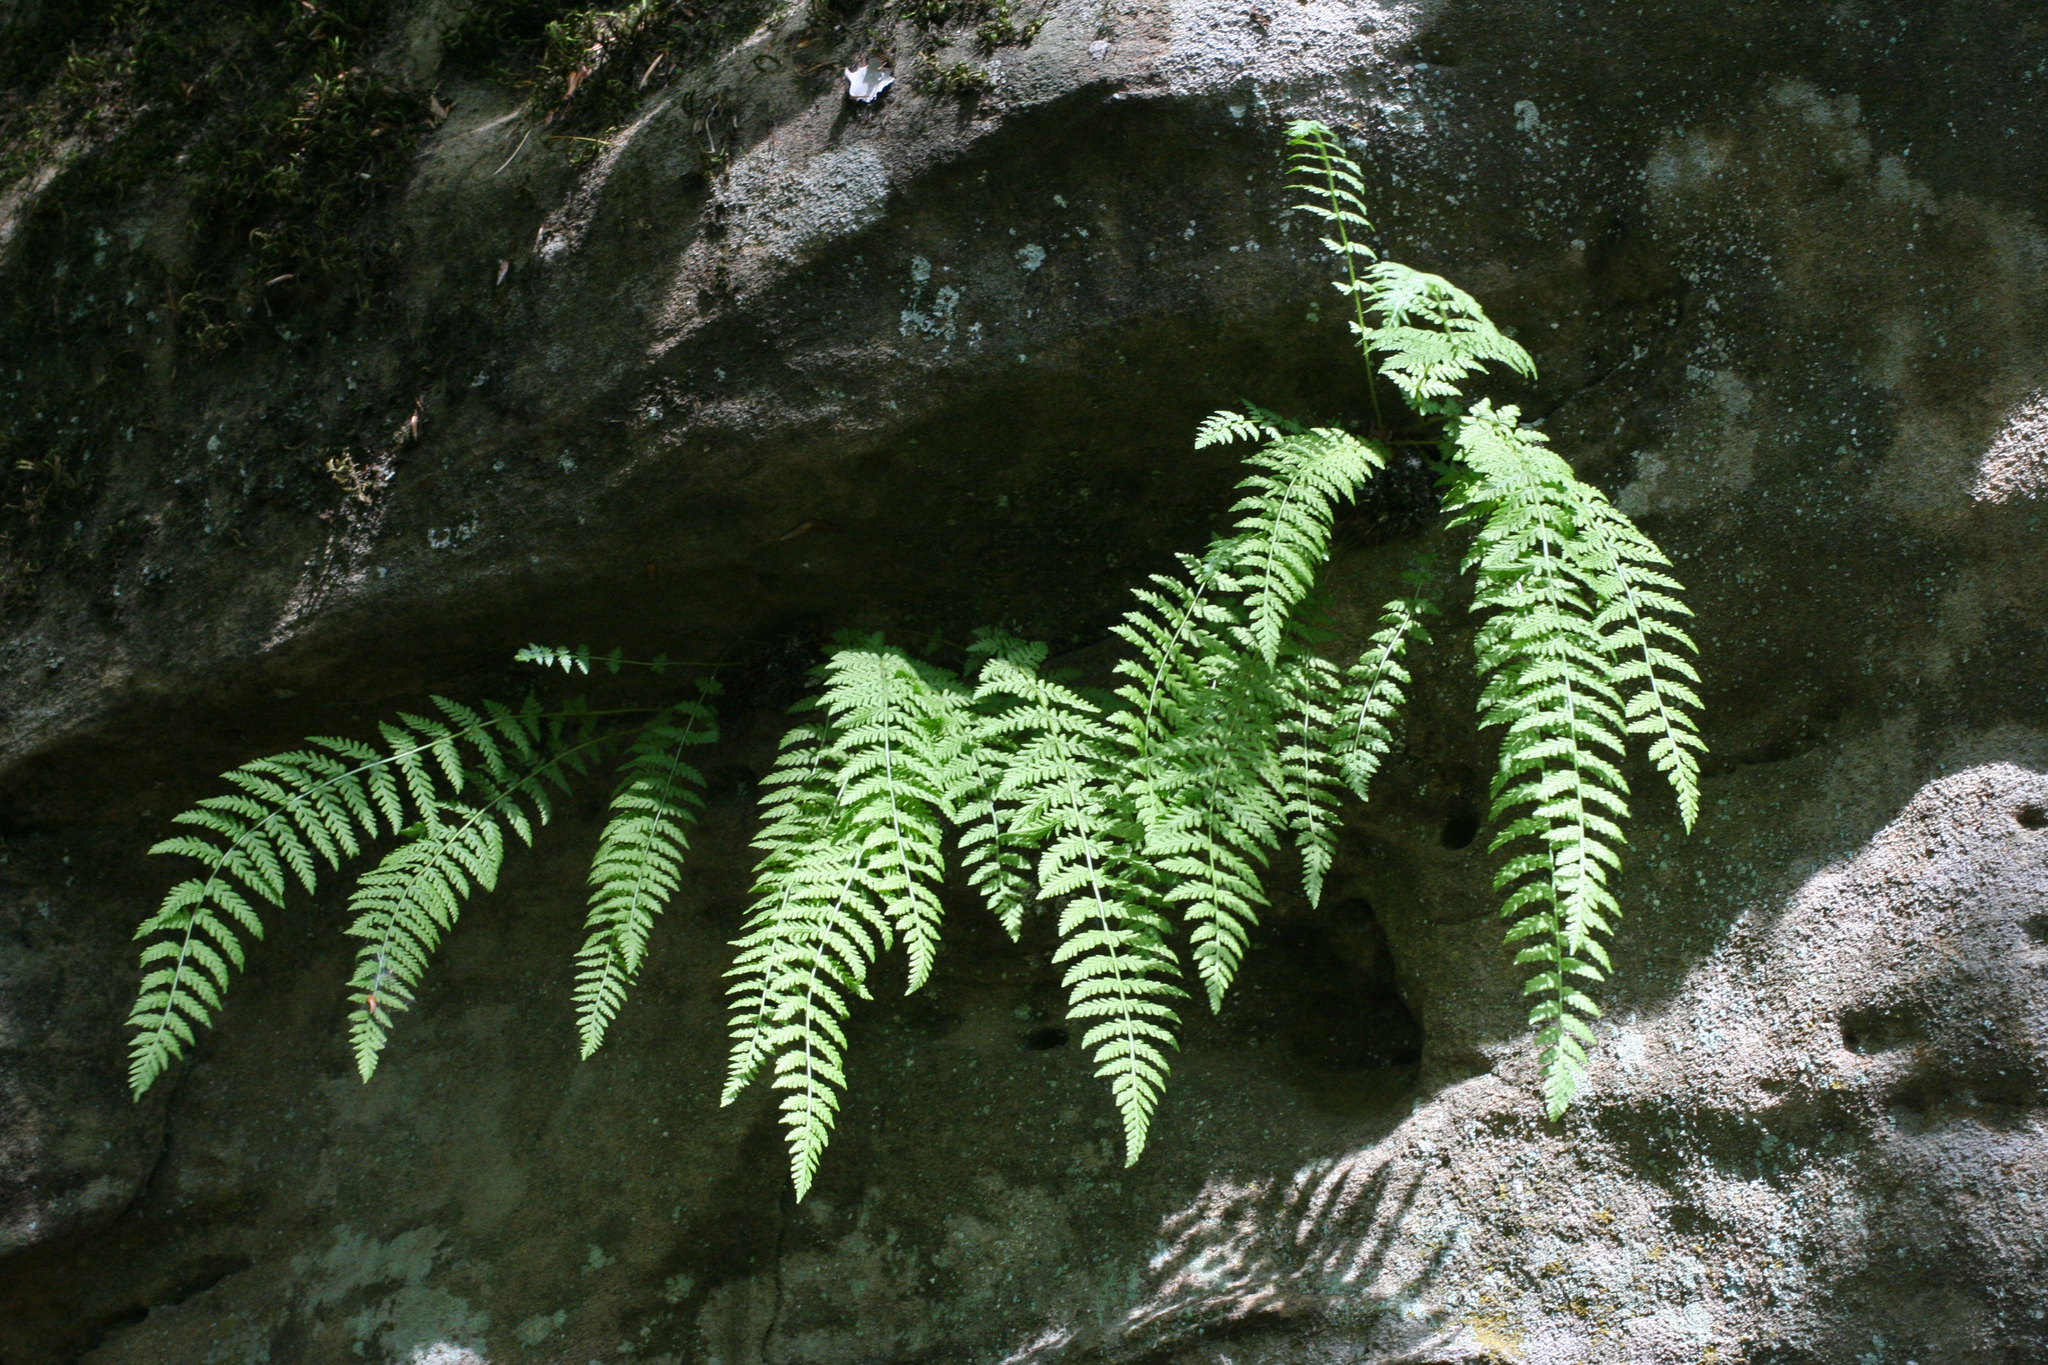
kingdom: Plantae
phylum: Tracheophyta
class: Polypodiopsida
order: Polypodiales
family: Woodsiaceae
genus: Physematium
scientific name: Physematium fragile
